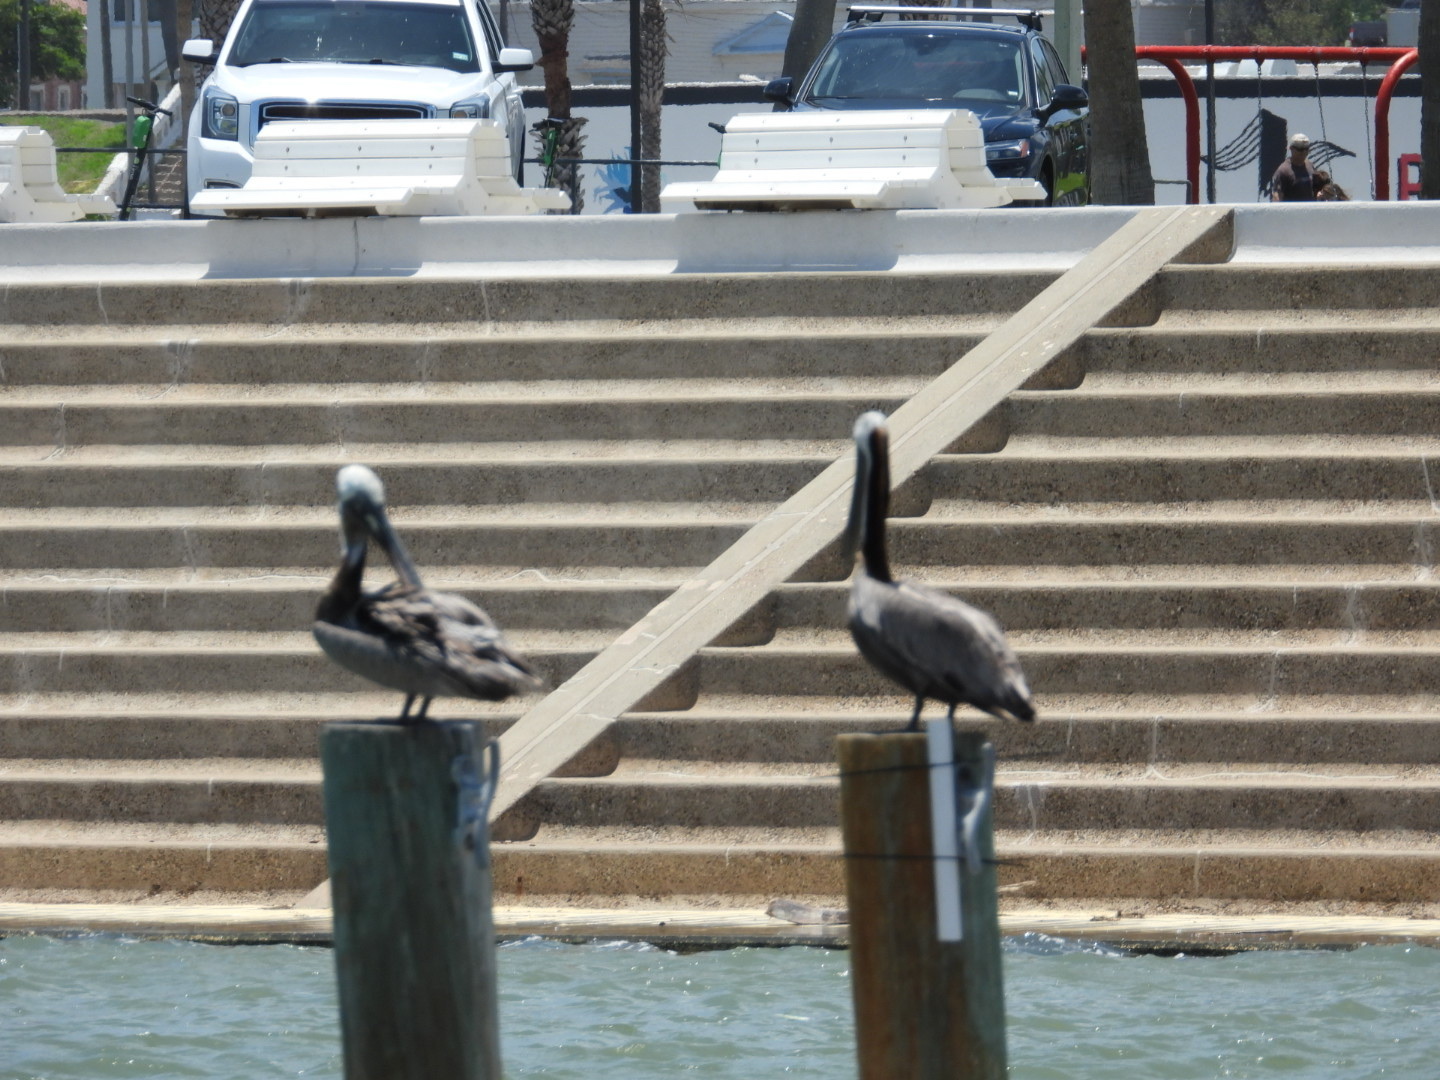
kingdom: Animalia
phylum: Chordata
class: Aves
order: Pelecaniformes
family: Pelecanidae
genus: Pelecanus
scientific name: Pelecanus occidentalis
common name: Brown pelican
